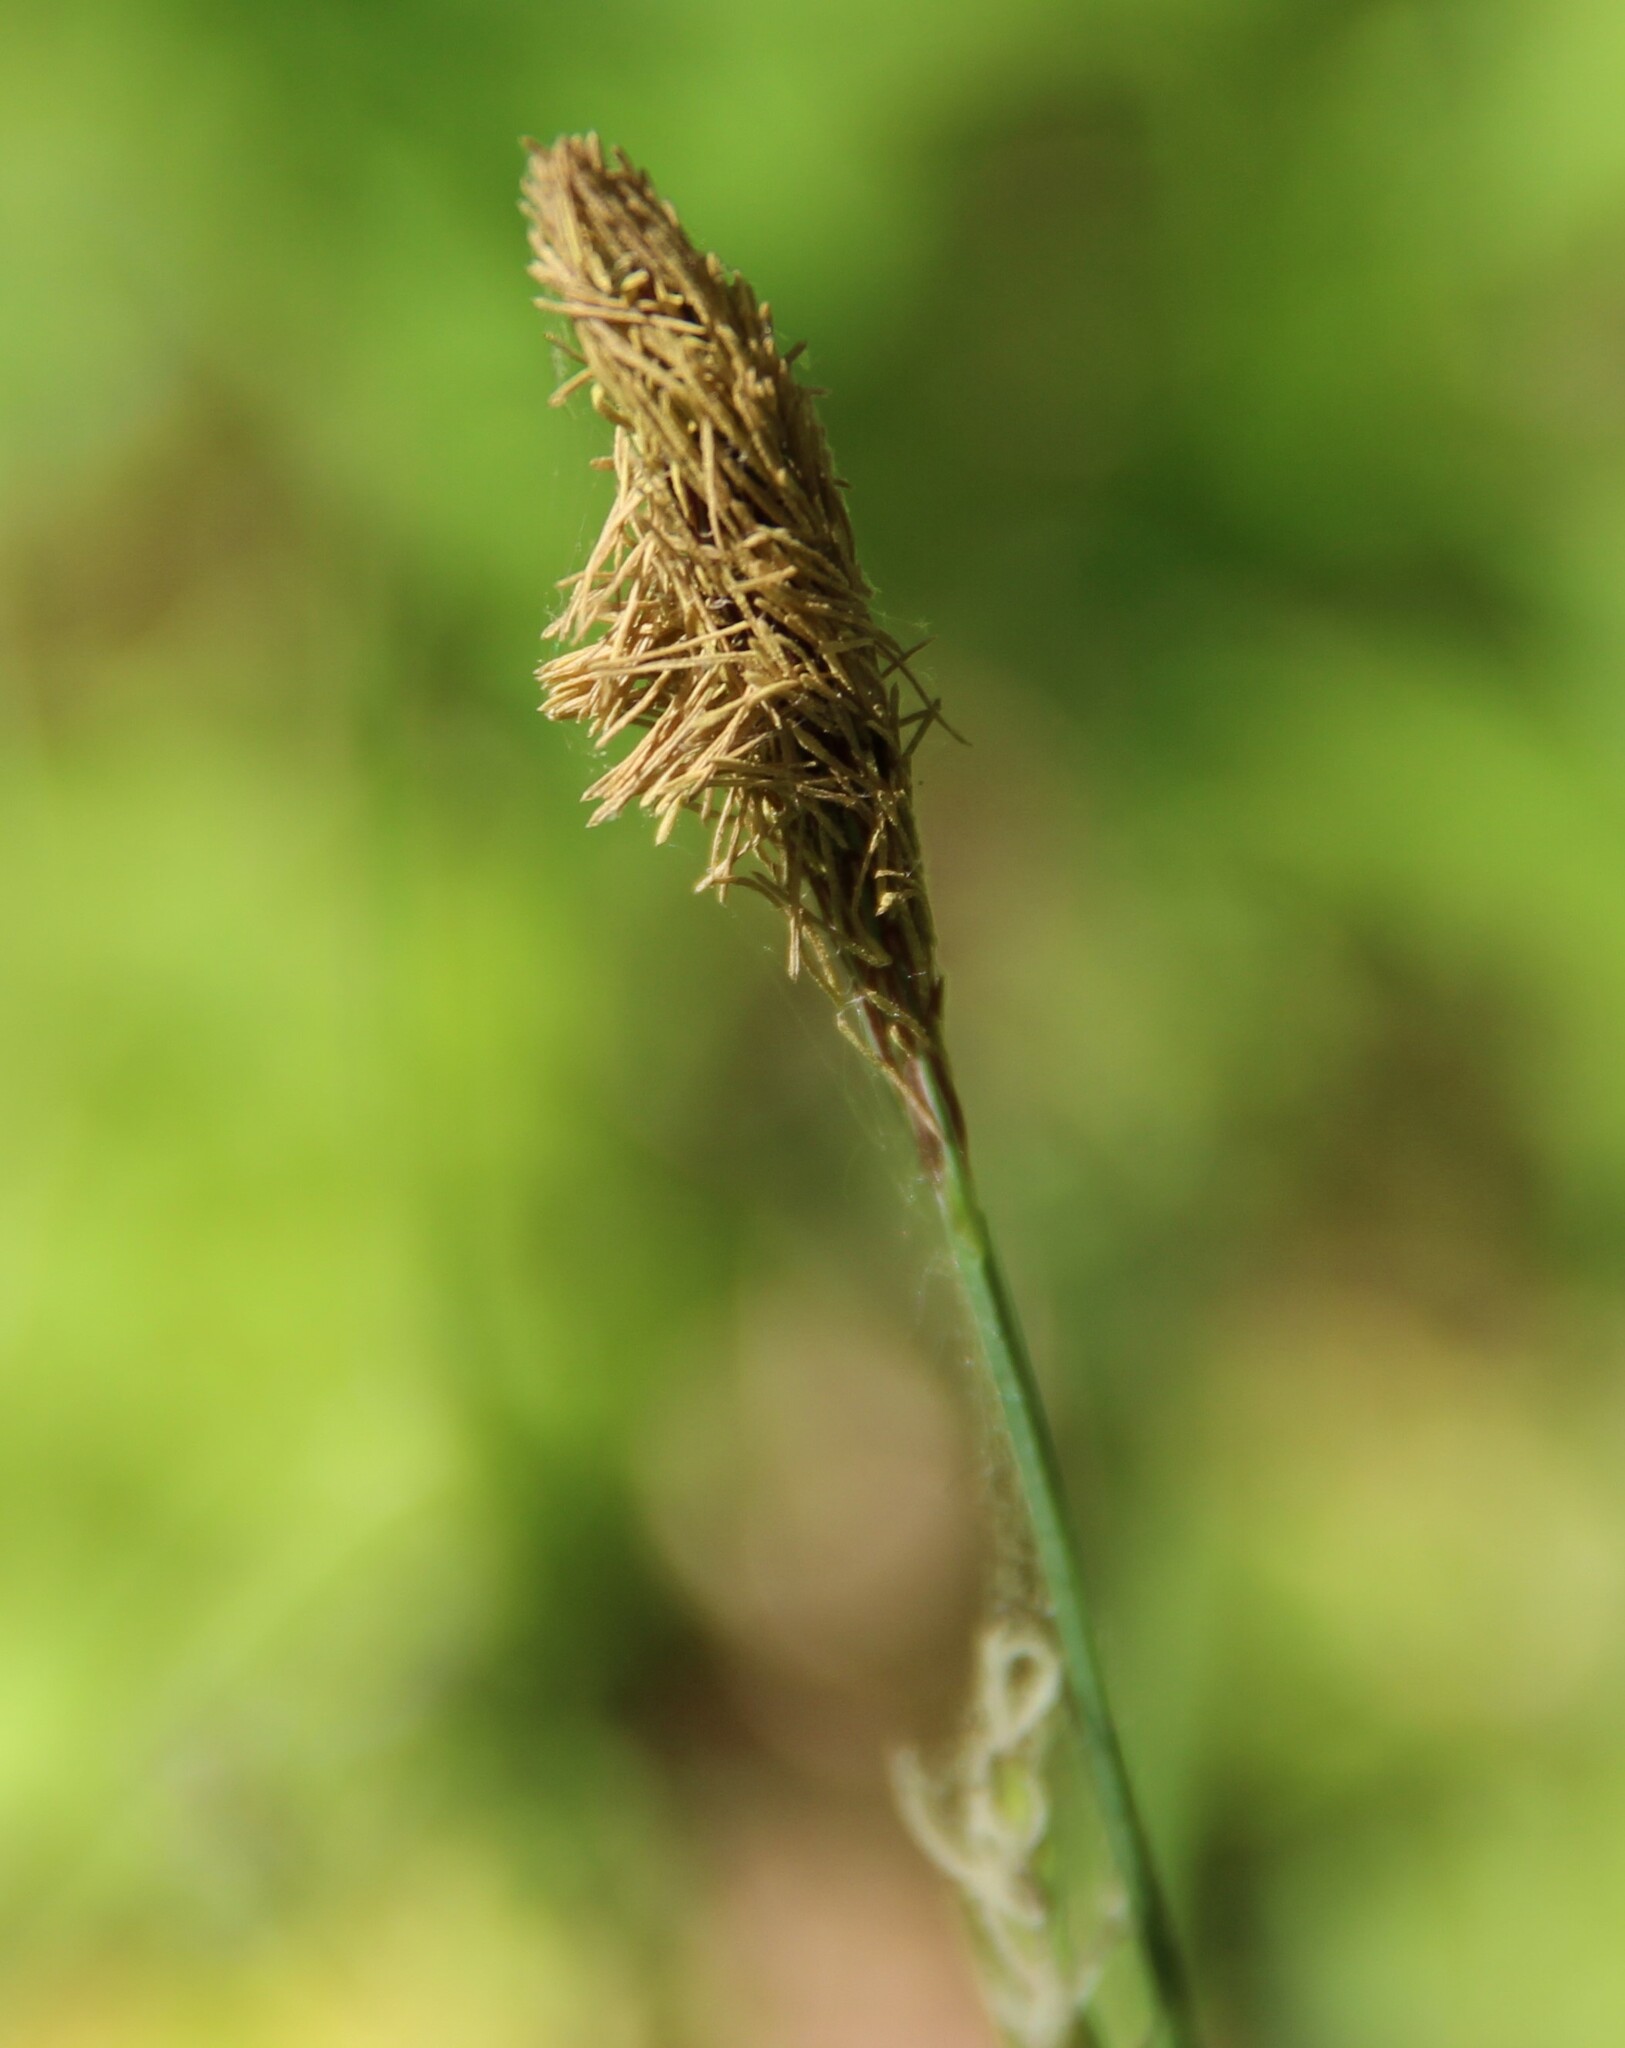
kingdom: Plantae
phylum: Tracheophyta
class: Liliopsida
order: Poales
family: Cyperaceae
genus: Carex
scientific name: Carex pilosa
